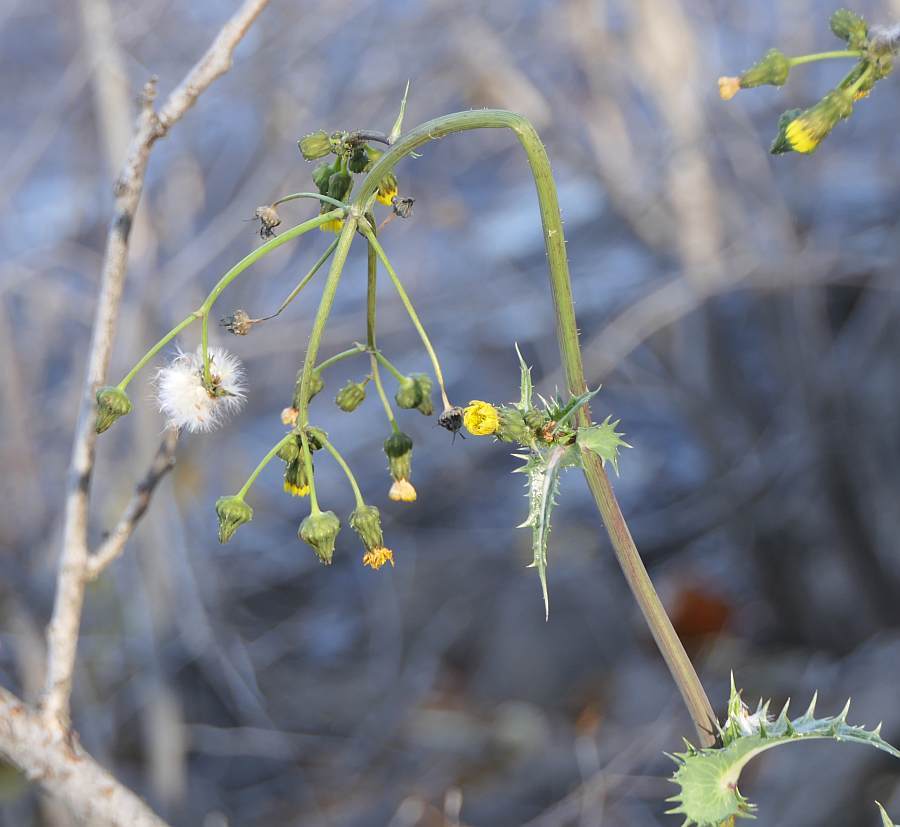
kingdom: Plantae
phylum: Tracheophyta
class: Magnoliopsida
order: Asterales
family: Asteraceae
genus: Sonchus
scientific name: Sonchus asper
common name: Prickly sow-thistle
